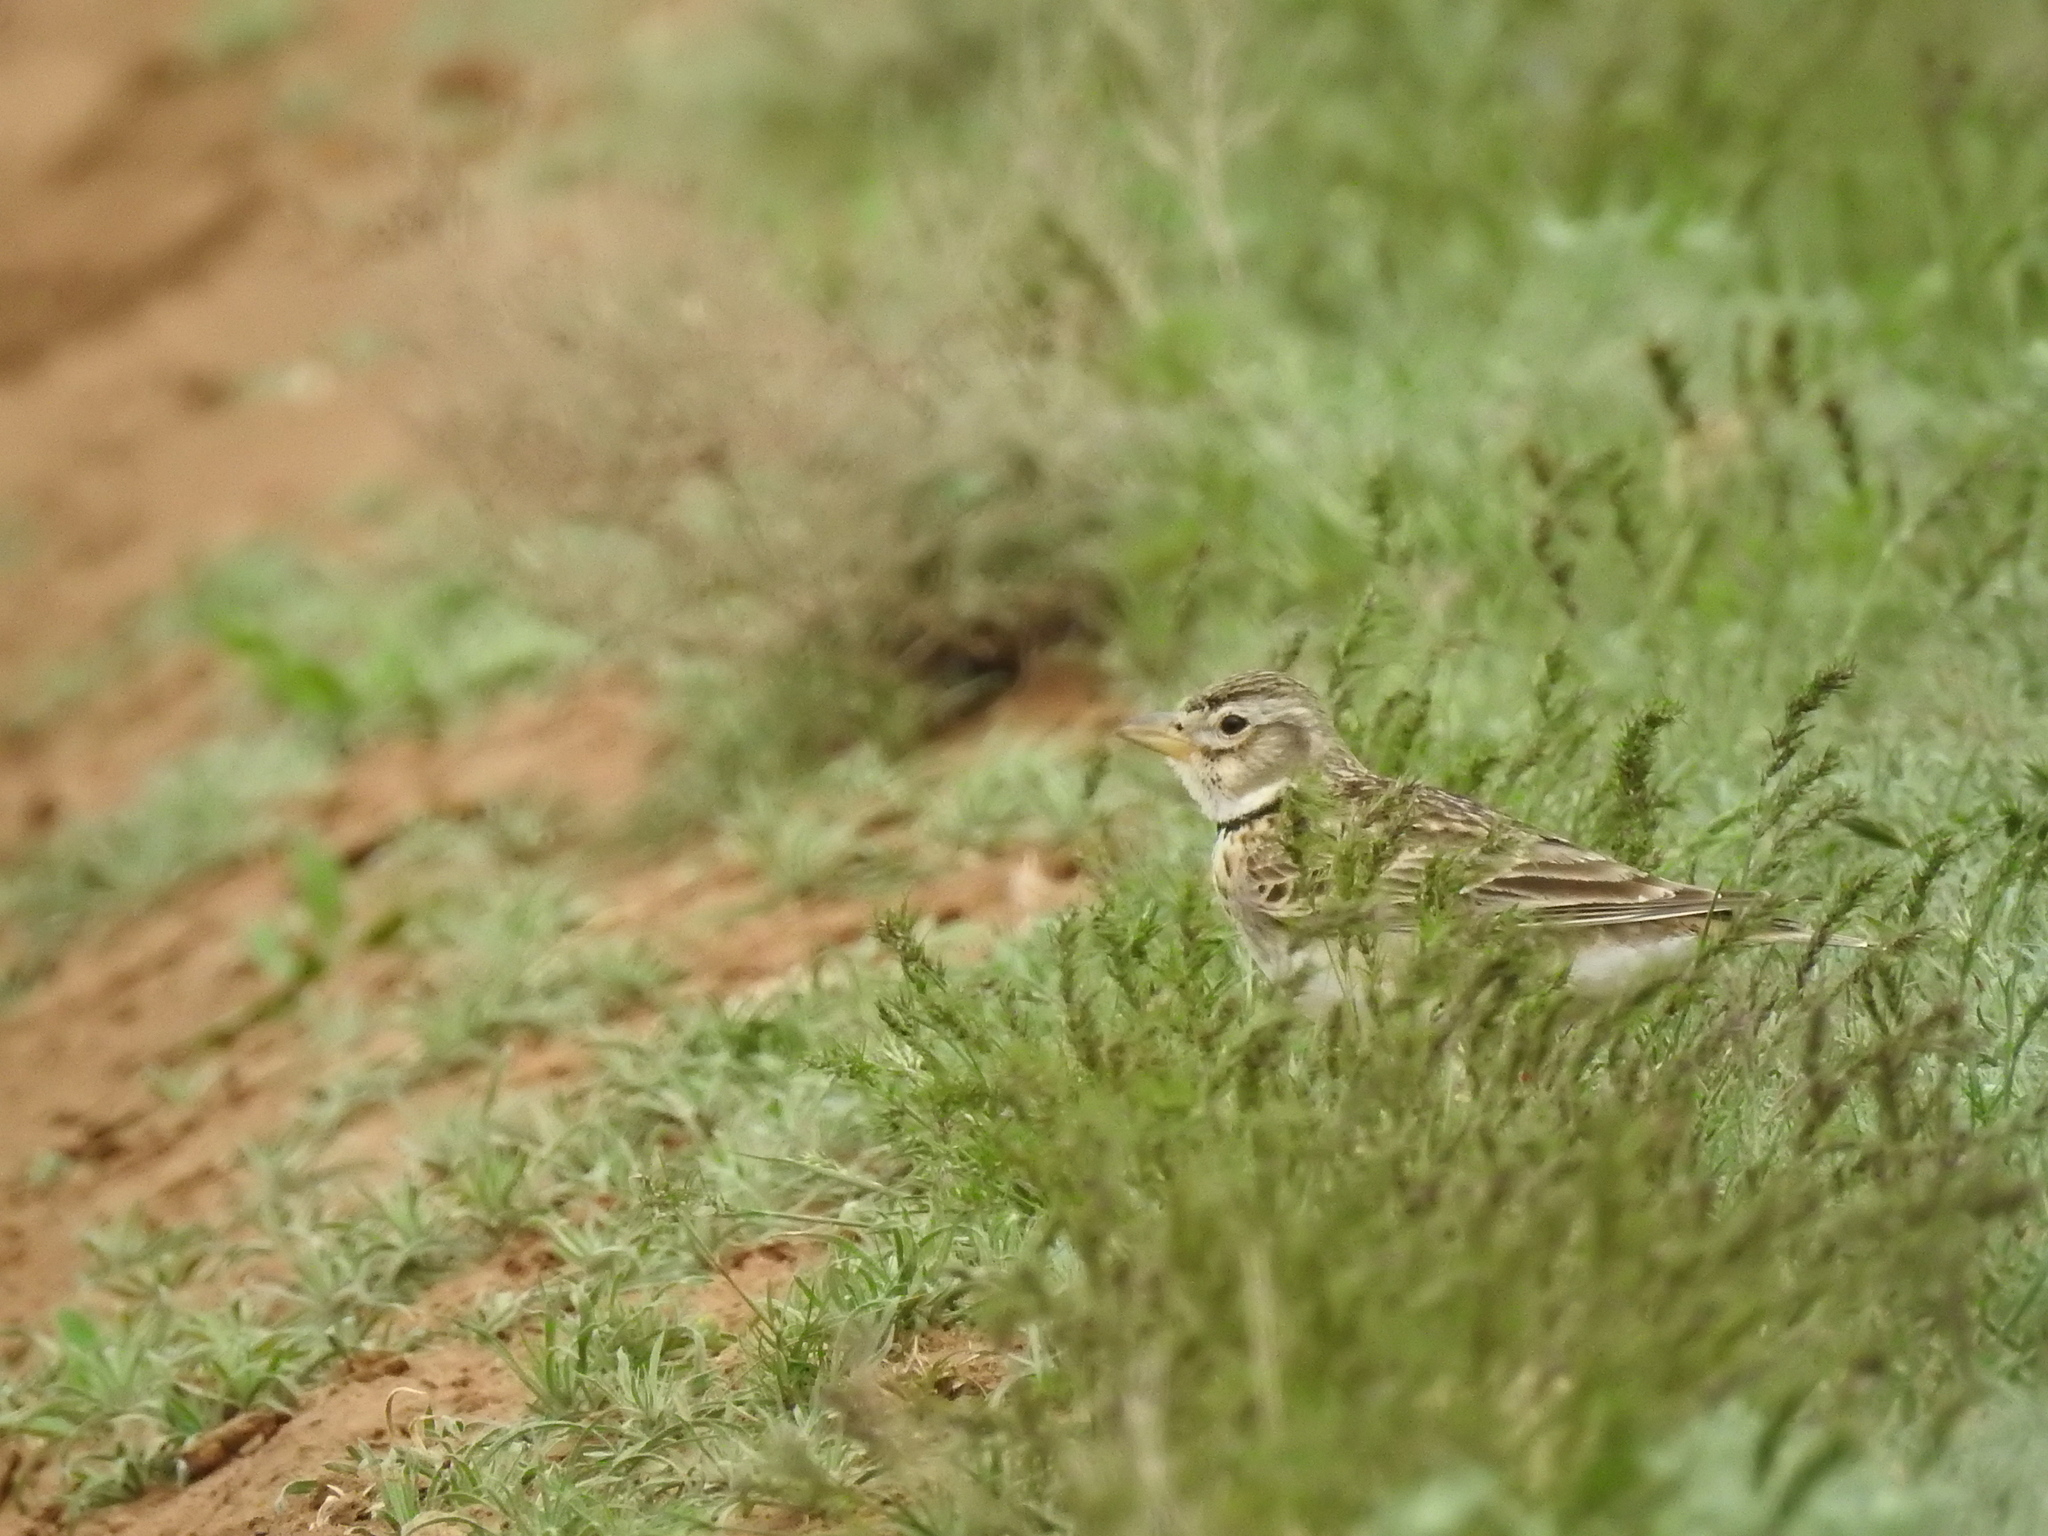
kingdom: Animalia
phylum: Chordata
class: Aves
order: Passeriformes
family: Alaudidae
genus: Melanocorypha
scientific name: Melanocorypha calandra
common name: Calandra lark
